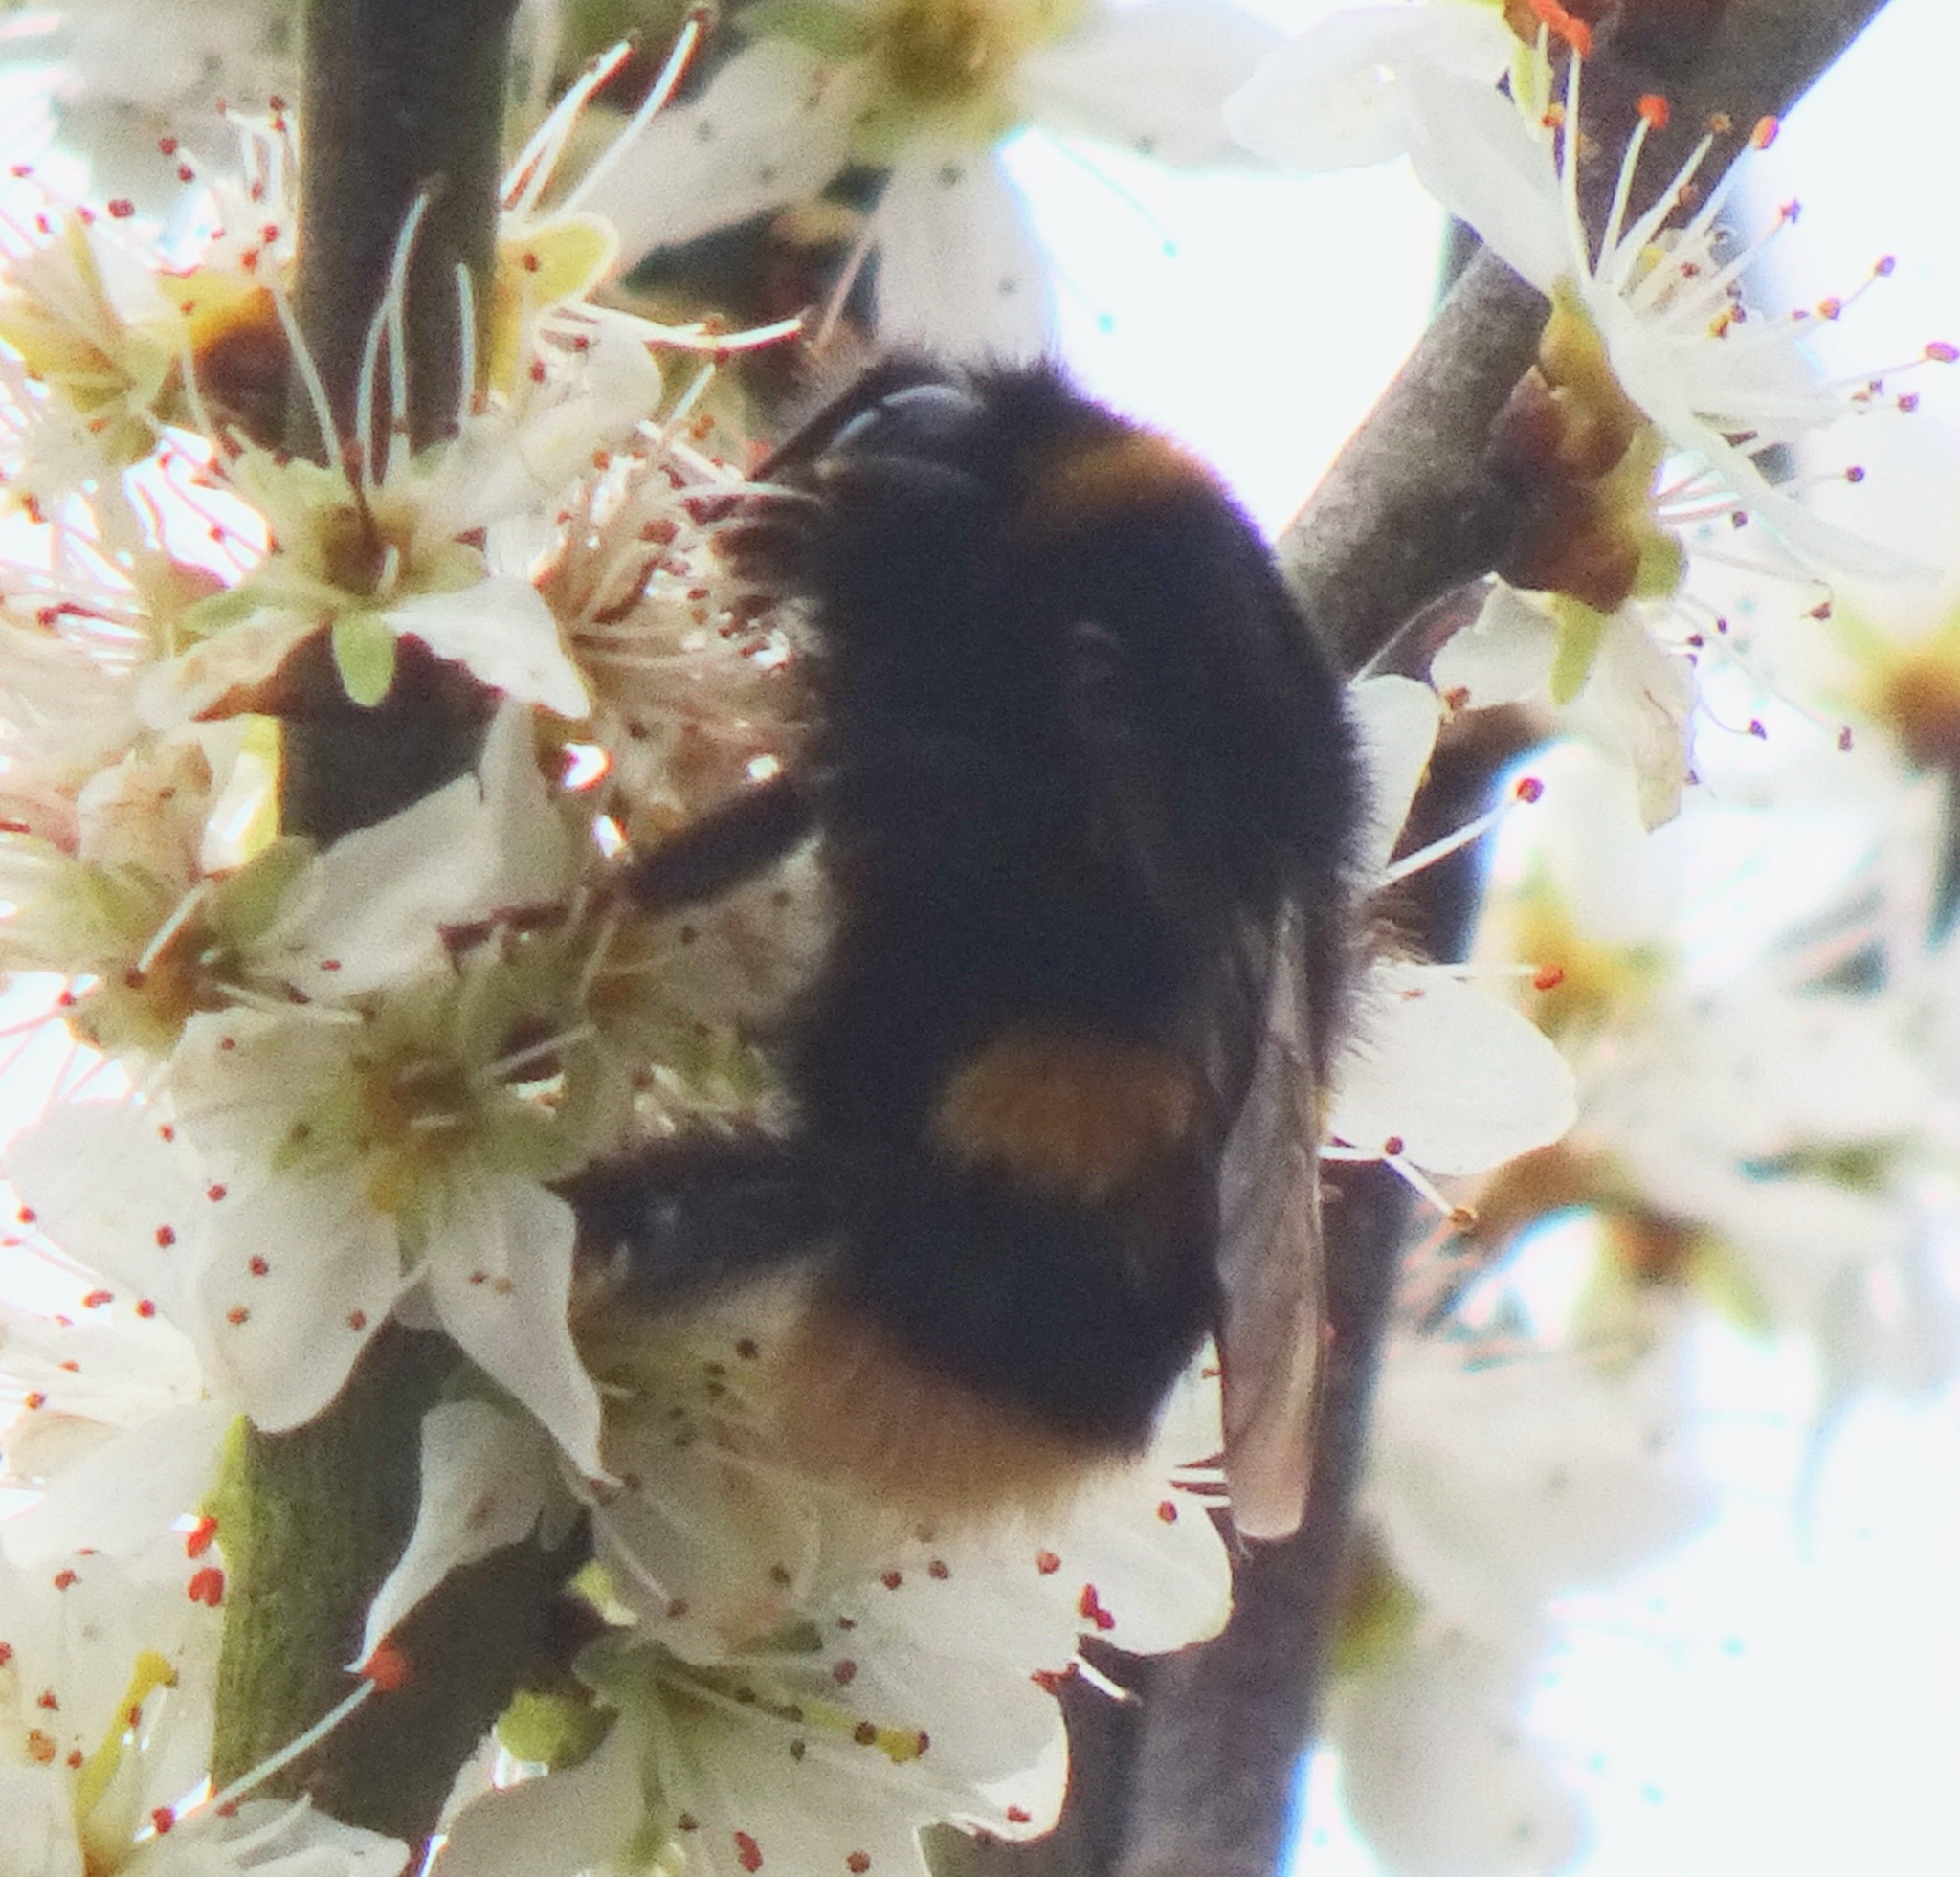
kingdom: Animalia
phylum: Arthropoda
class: Insecta
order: Hymenoptera
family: Apidae
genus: Bombus
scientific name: Bombus terrestris
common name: Buff-tailed bumblebee
